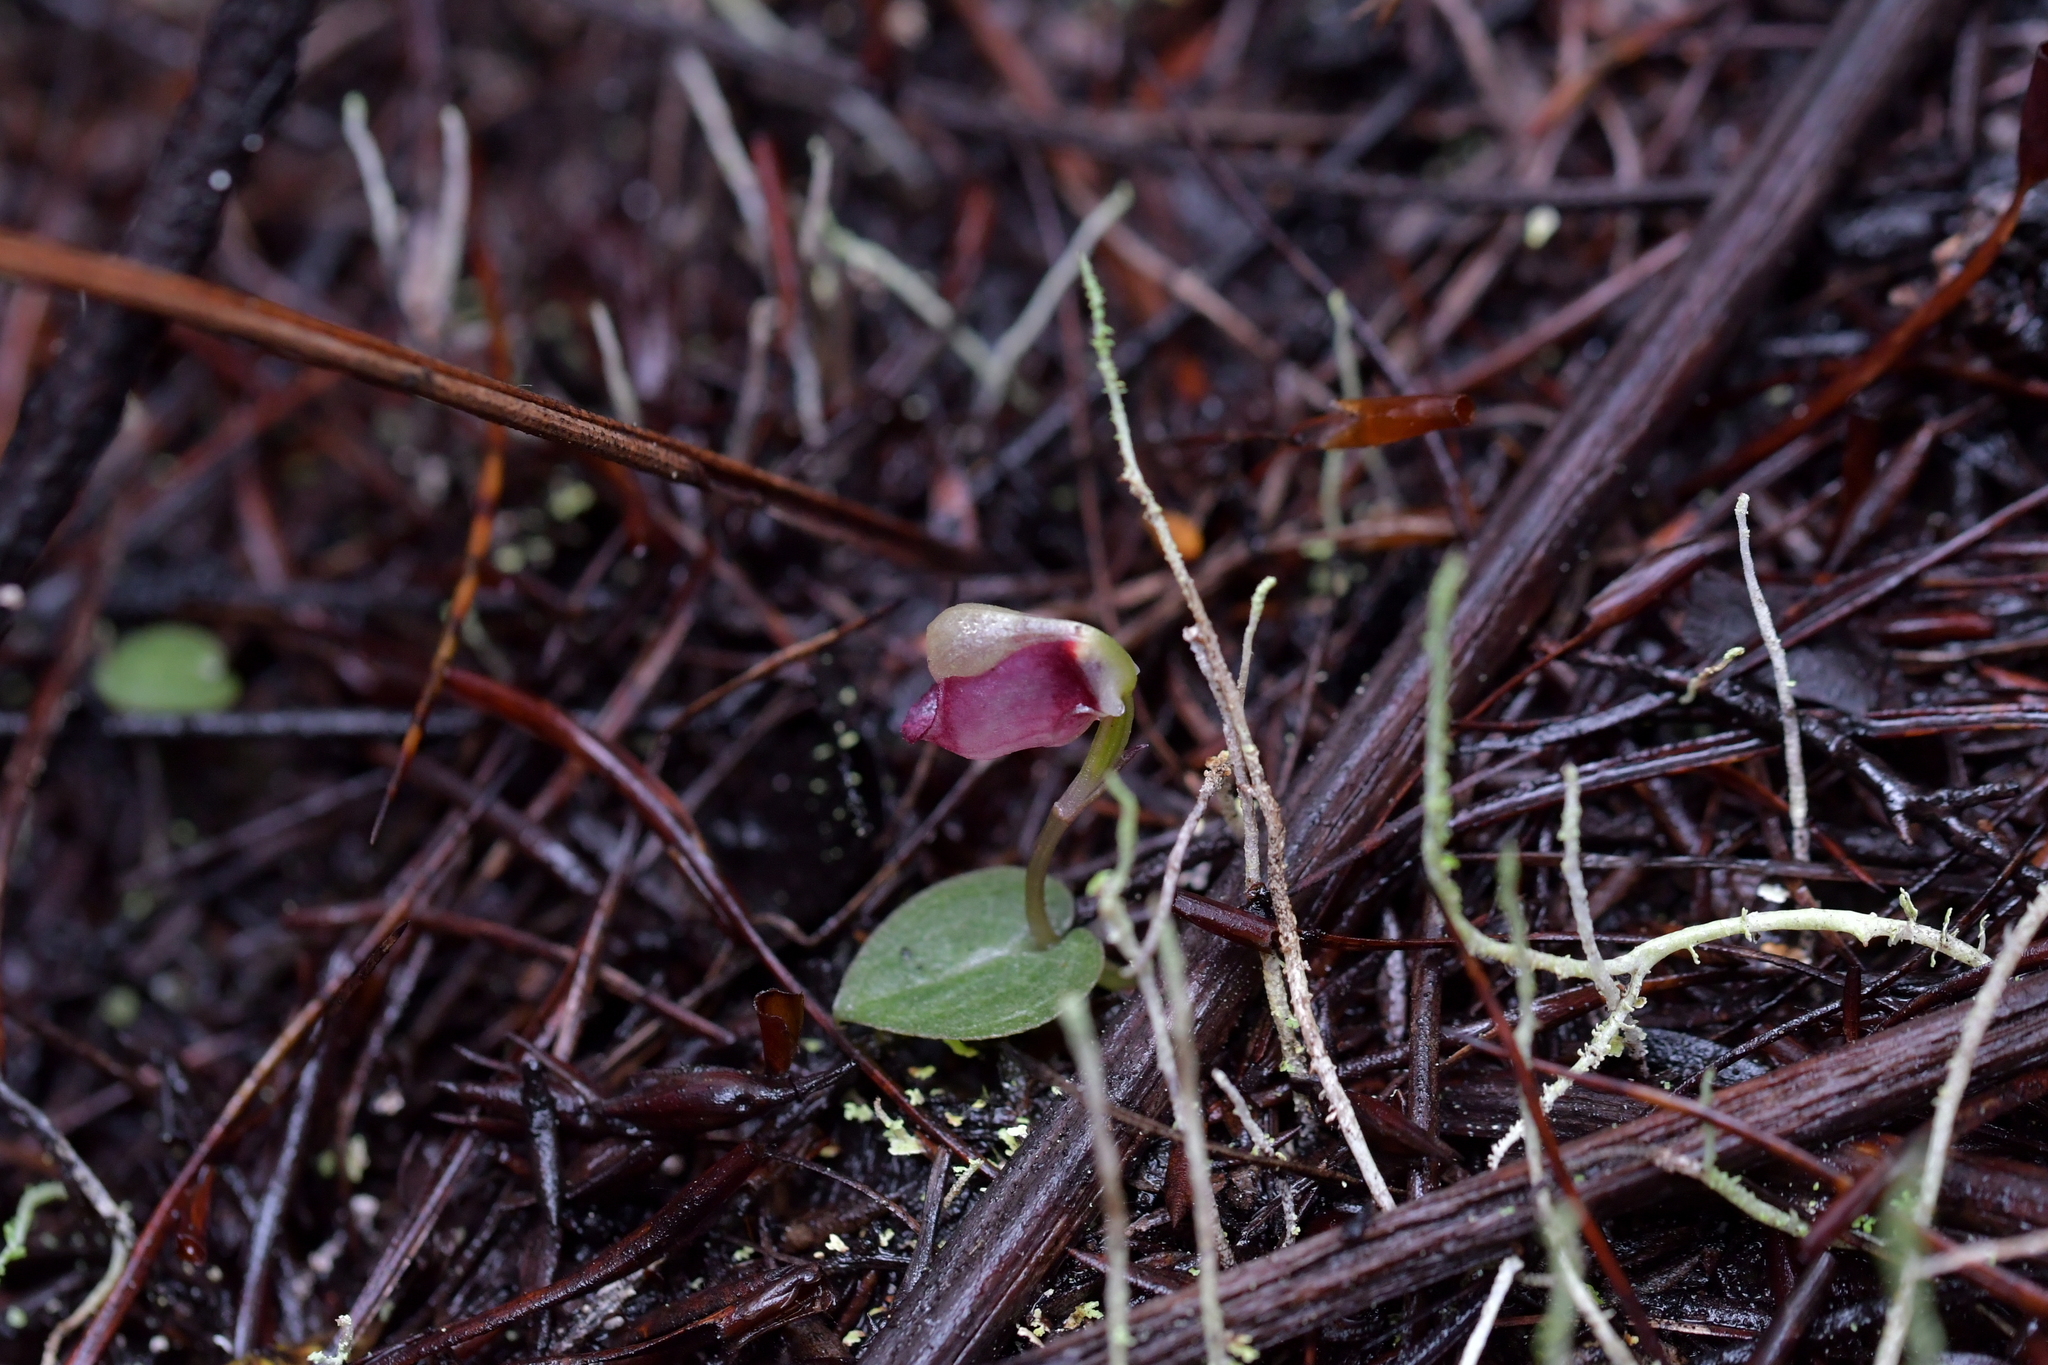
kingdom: Plantae
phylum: Tracheophyta
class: Liliopsida
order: Asparagales
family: Orchidaceae
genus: Corybas
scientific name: Corybas rotundifolius
